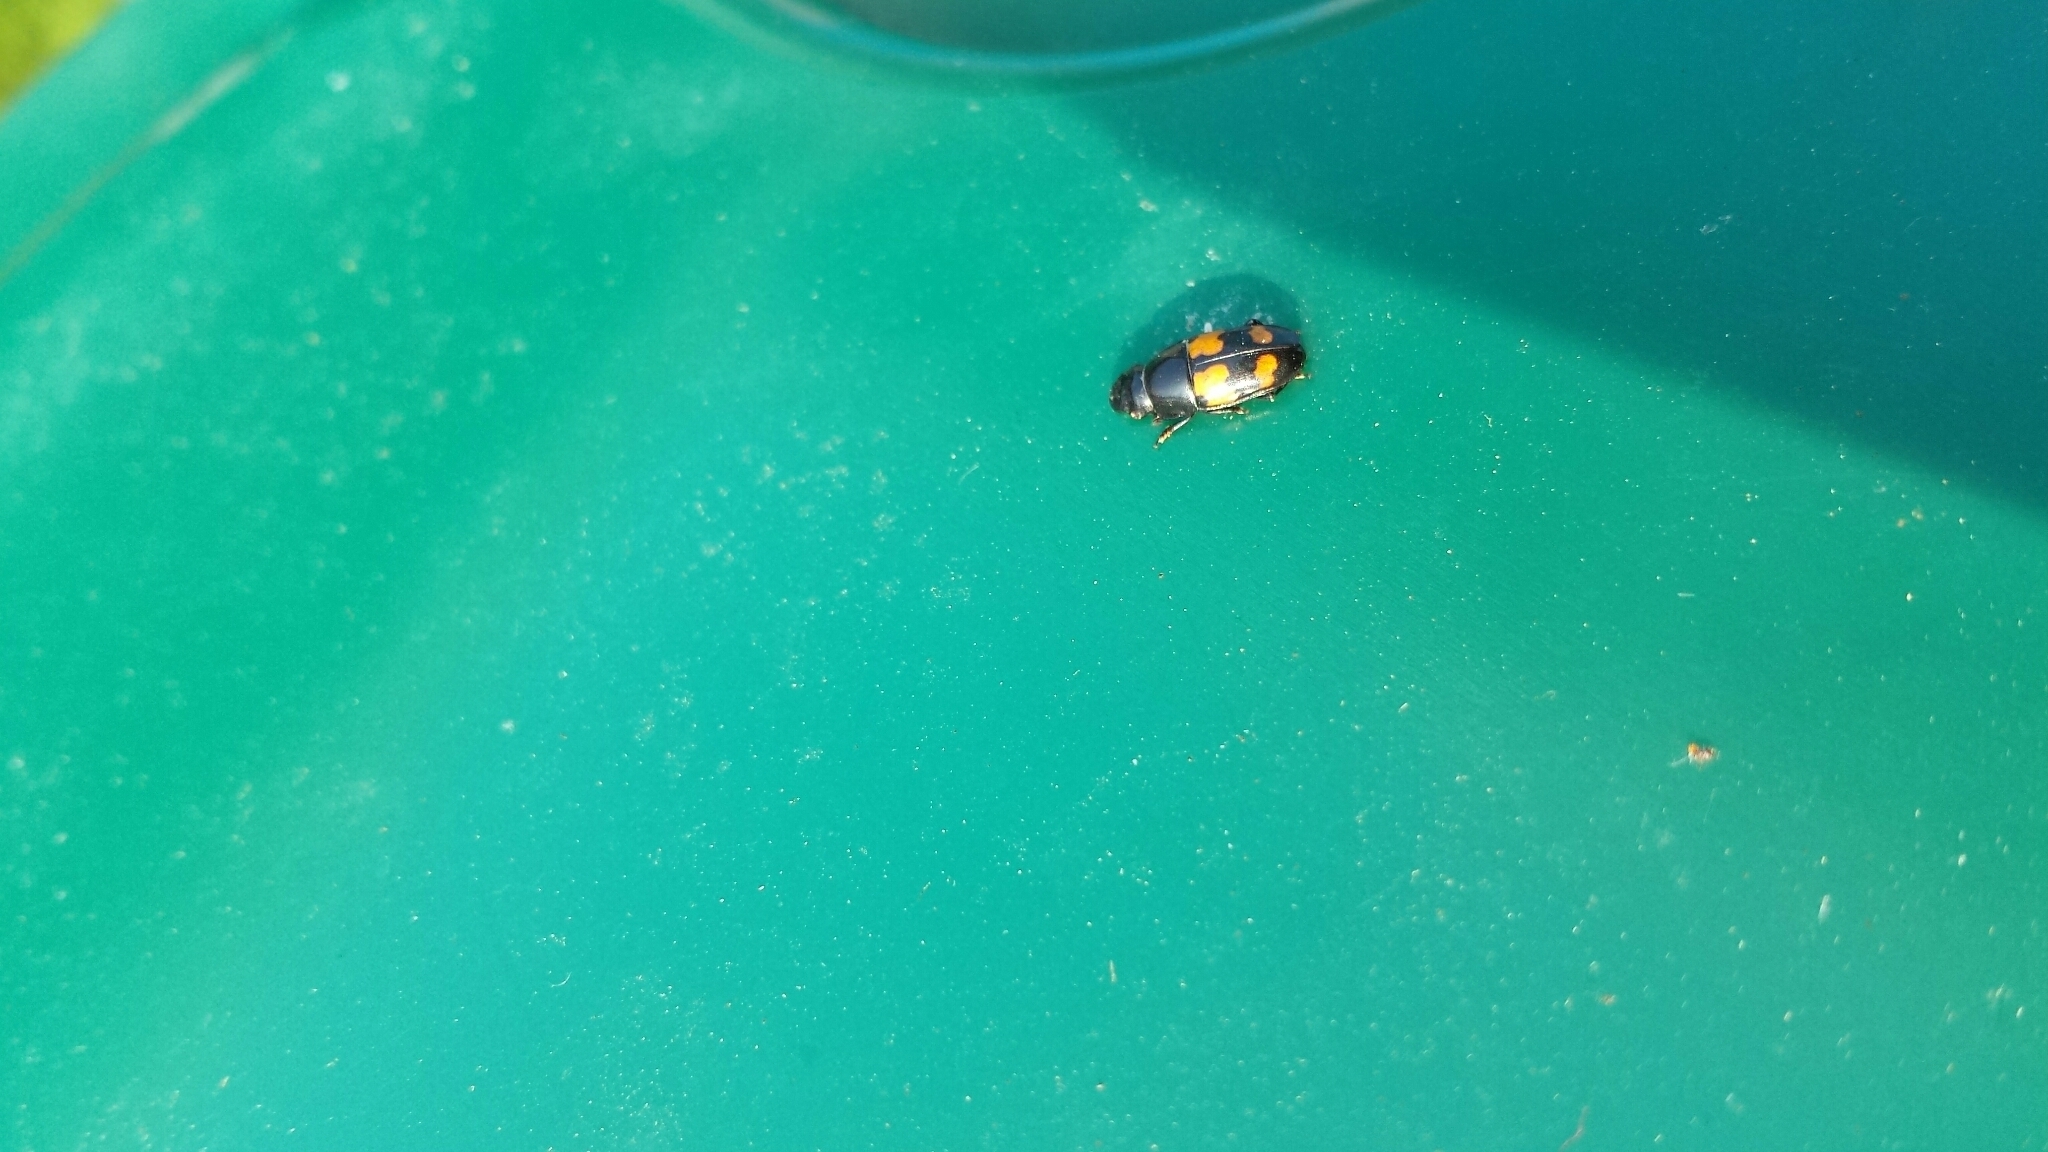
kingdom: Animalia
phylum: Arthropoda
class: Insecta
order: Coleoptera
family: Nitidulidae
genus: Glischrochilus
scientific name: Glischrochilus fasciatus
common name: Picnic beetle
